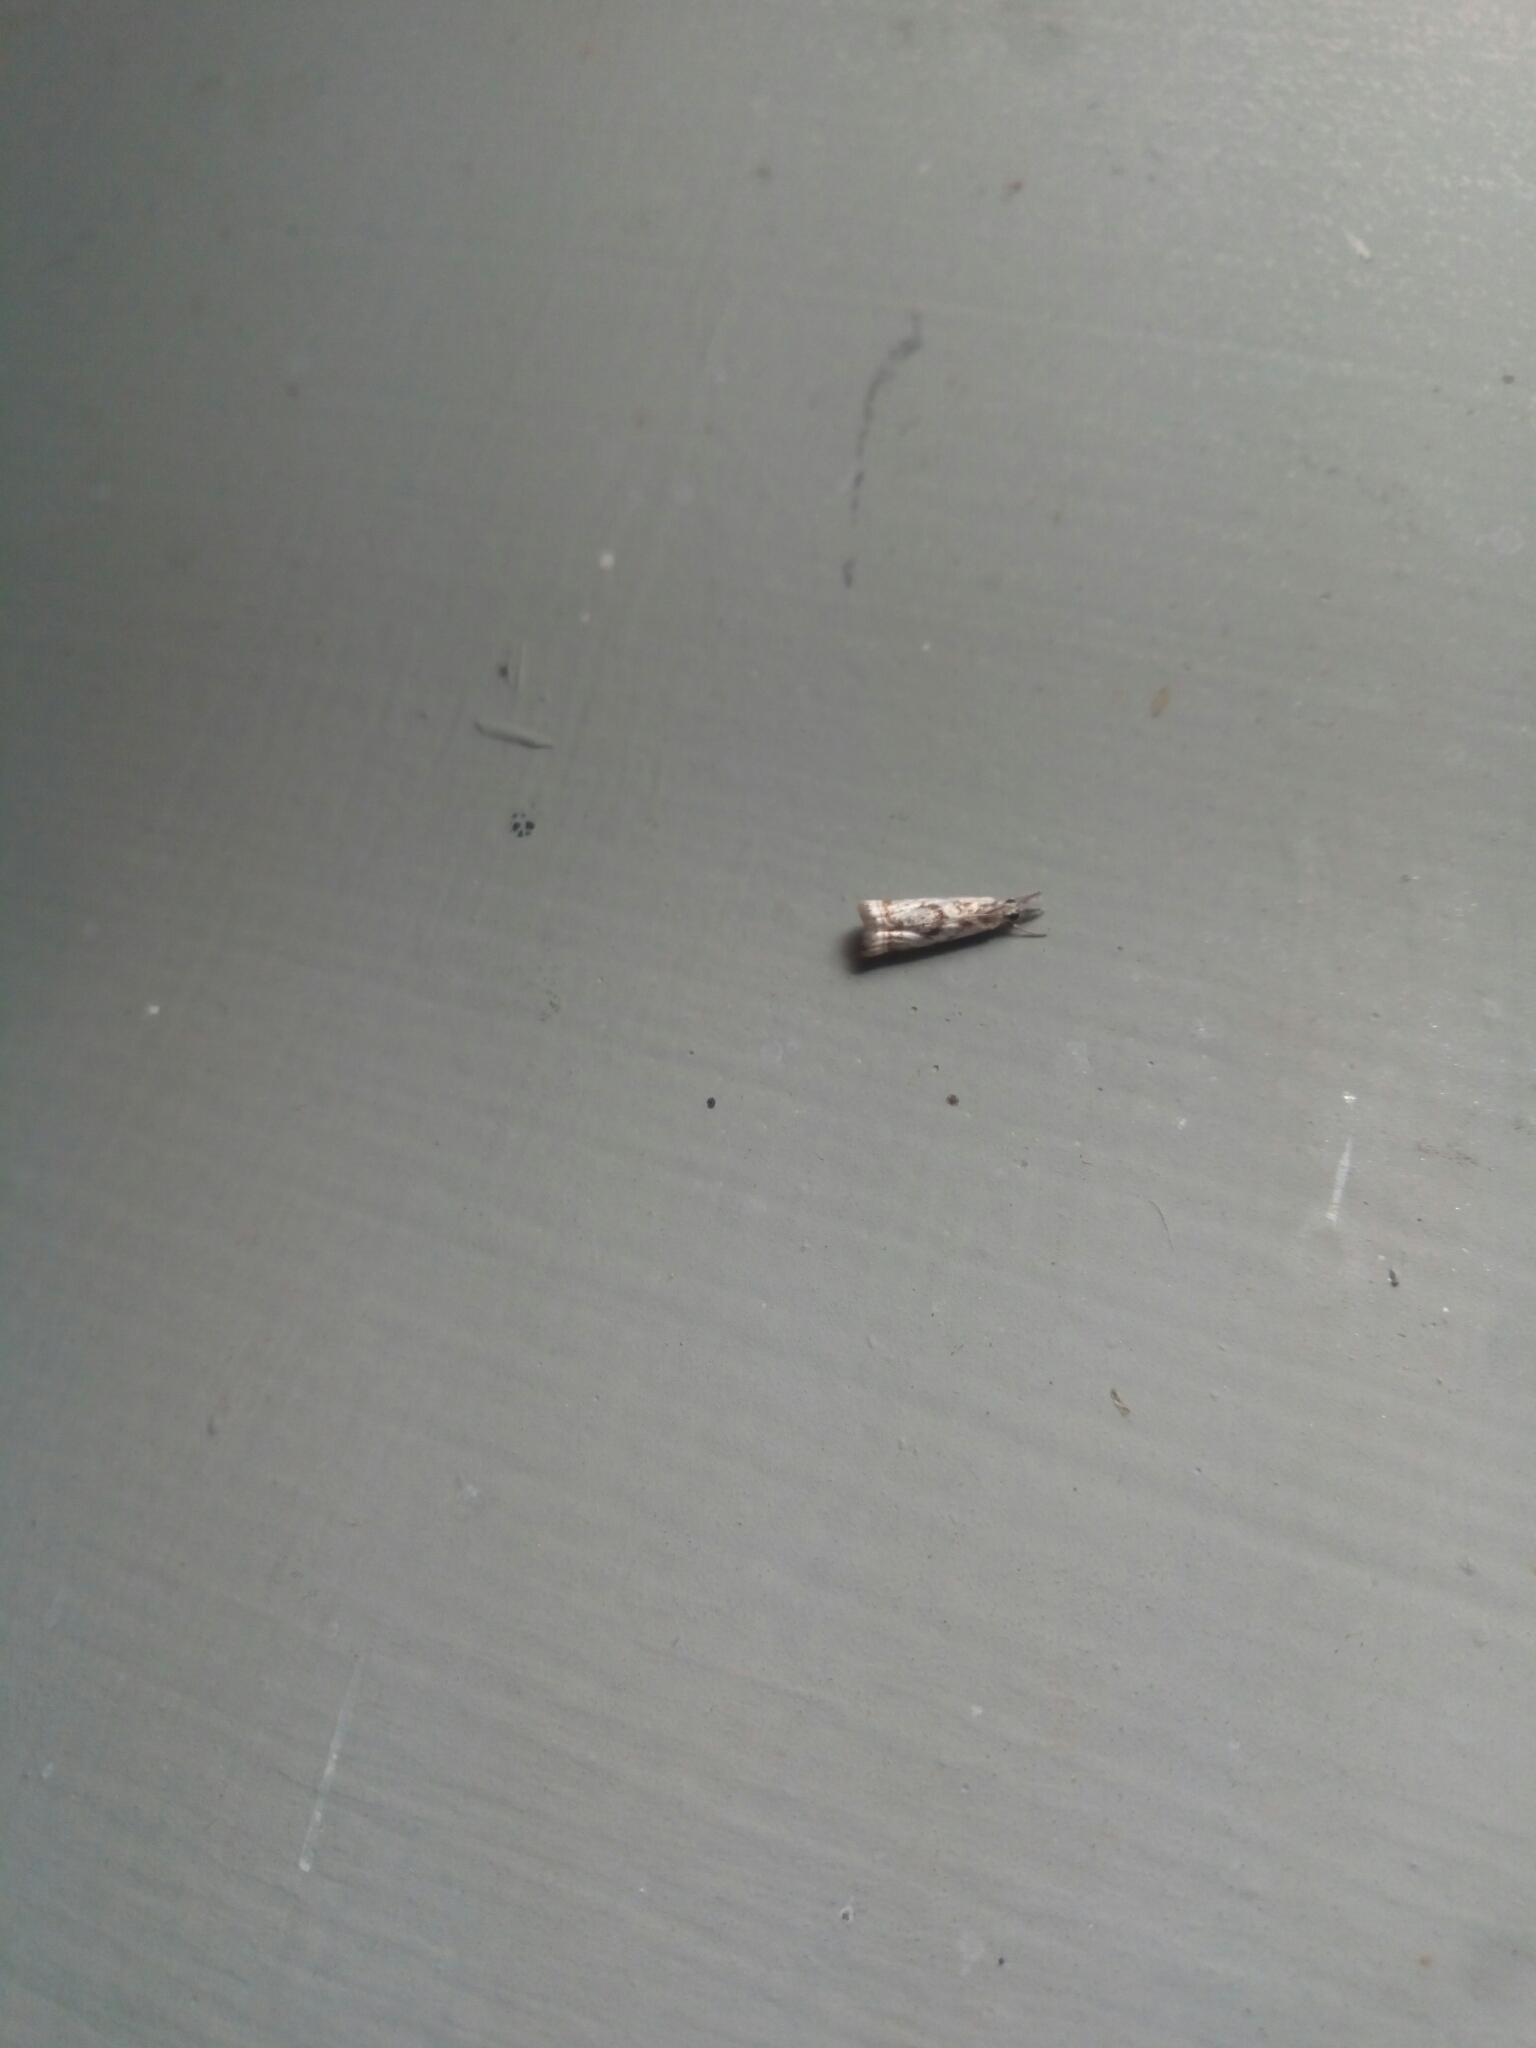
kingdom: Animalia
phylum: Arthropoda
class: Insecta
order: Lepidoptera
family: Crambidae
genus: Microcrambus
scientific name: Microcrambus elegans
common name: Elegant grass-veneer
